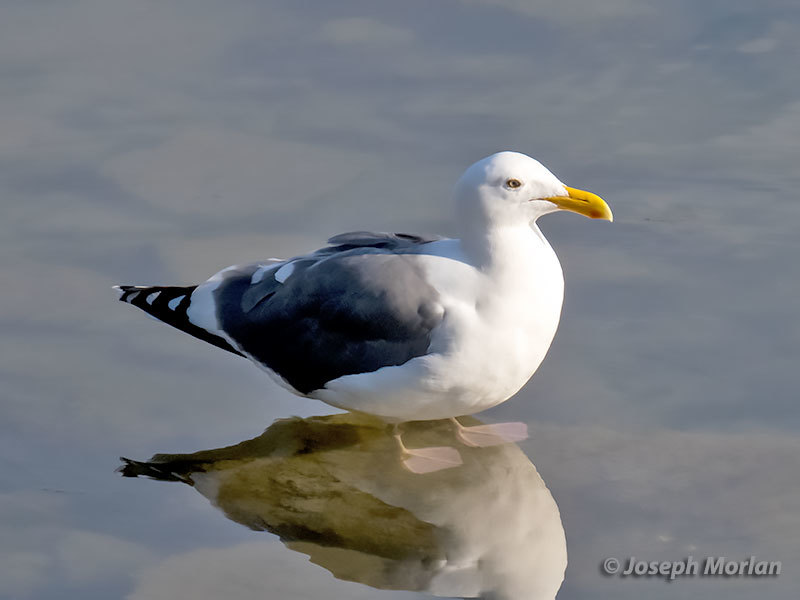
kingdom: Animalia
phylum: Chordata
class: Aves
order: Charadriiformes
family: Laridae
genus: Larus
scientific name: Larus occidentalis
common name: Western gull
